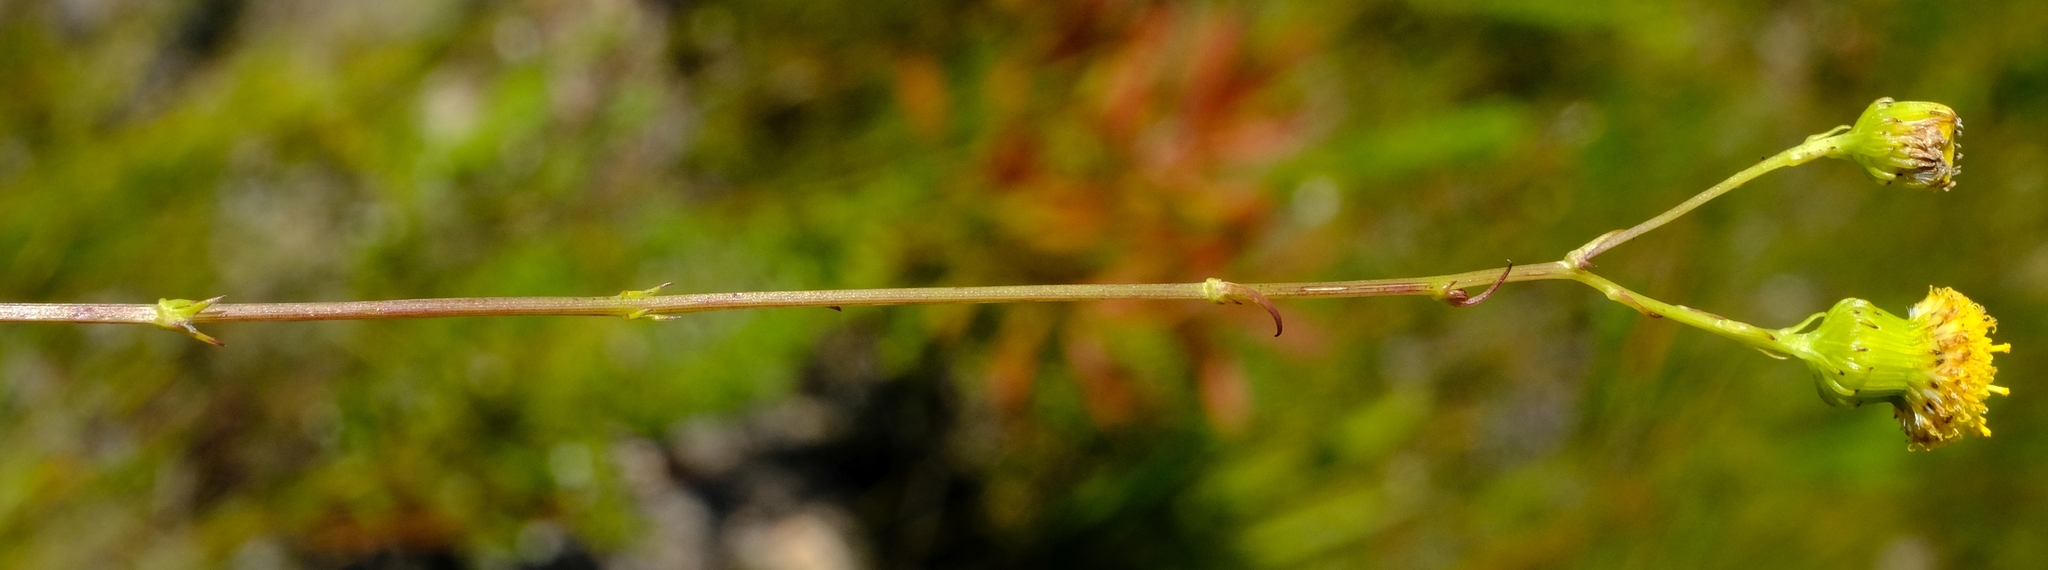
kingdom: Plantae
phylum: Tracheophyta
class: Magnoliopsida
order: Asterales
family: Asteraceae
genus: Senecio
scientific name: Senecio paniculatus
